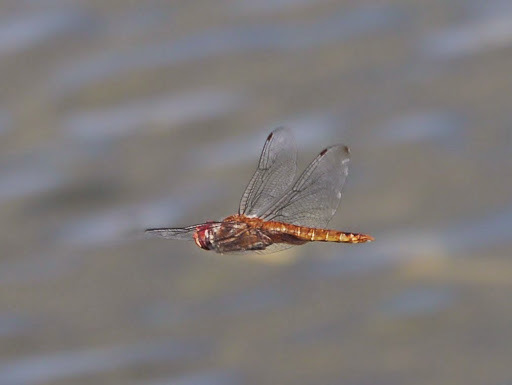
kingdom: Animalia
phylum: Arthropoda
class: Insecta
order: Odonata
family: Libellulidae
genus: Pantala
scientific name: Pantala hymenaea
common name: Spot-winged glider
